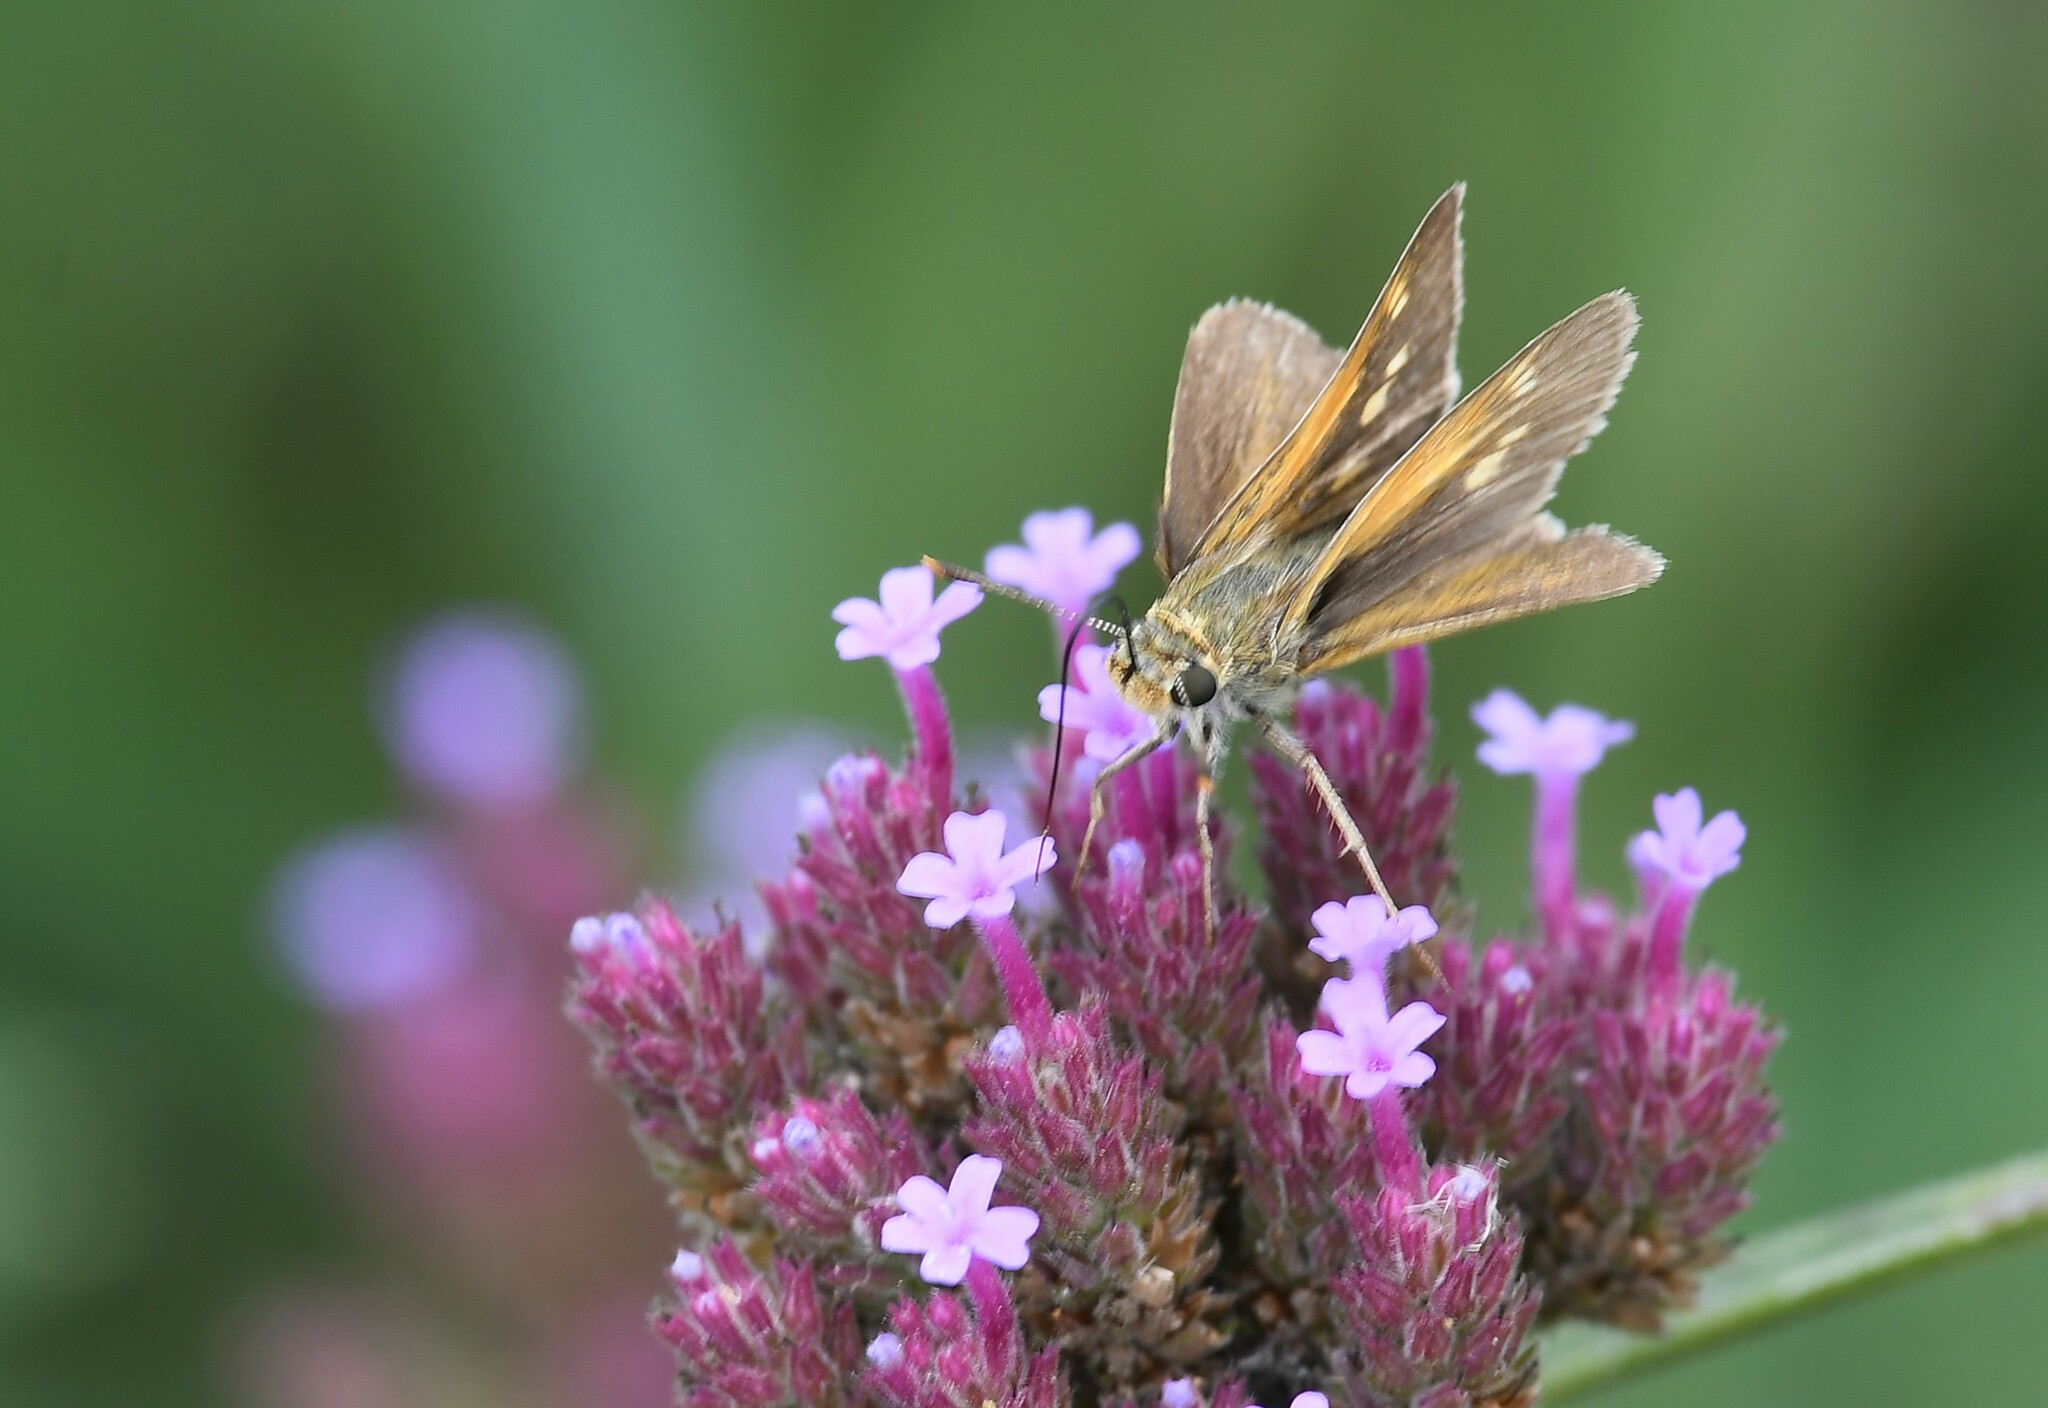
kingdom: Animalia
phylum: Arthropoda
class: Insecta
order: Lepidoptera
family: Hesperiidae
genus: Polites
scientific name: Polites themistocles
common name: Tawny-edged skipper
